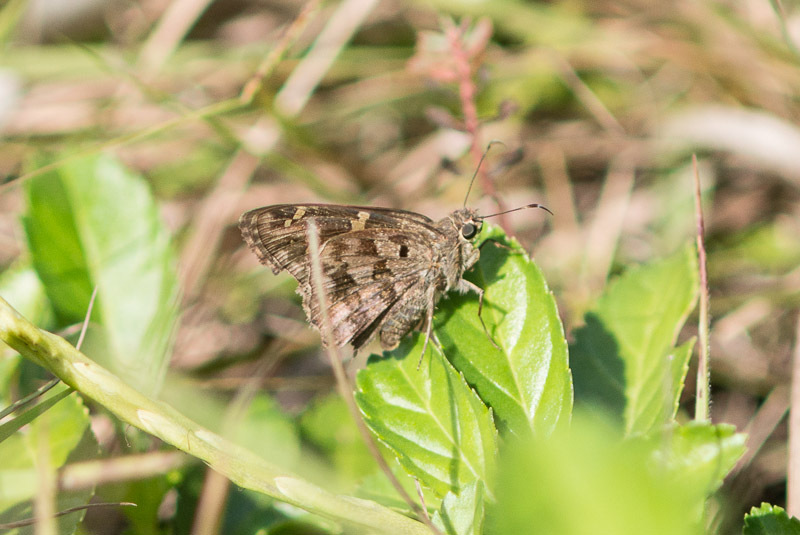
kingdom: Animalia
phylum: Arthropoda
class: Insecta
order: Lepidoptera
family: Hesperiidae
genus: Thorybes
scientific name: Thorybes
